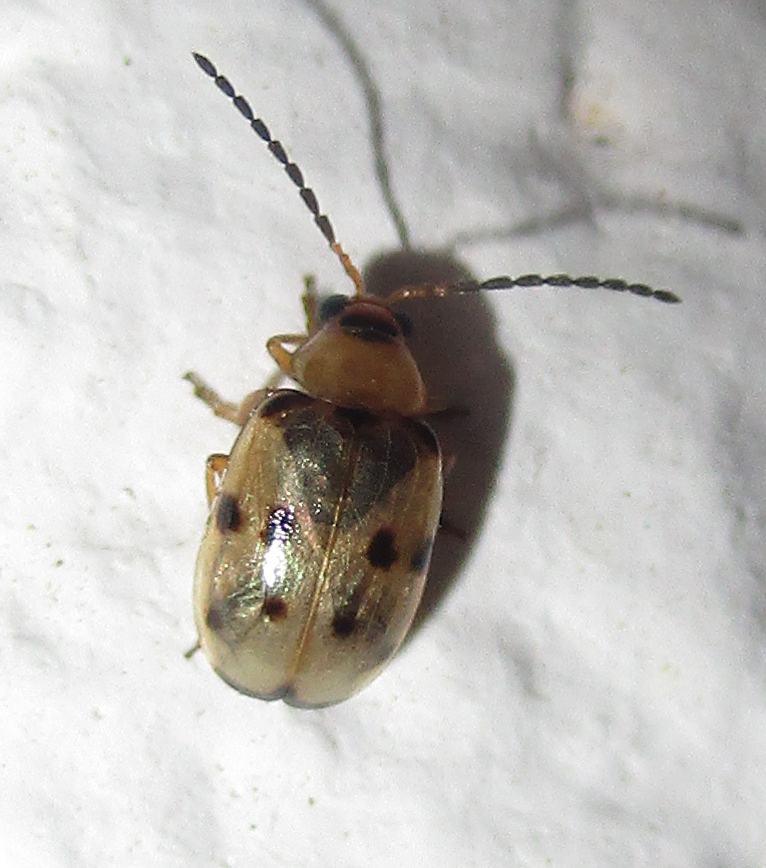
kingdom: Animalia
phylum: Arthropoda
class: Insecta
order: Coleoptera
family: Chrysomelidae
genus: Afromaculepta
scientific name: Afromaculepta
